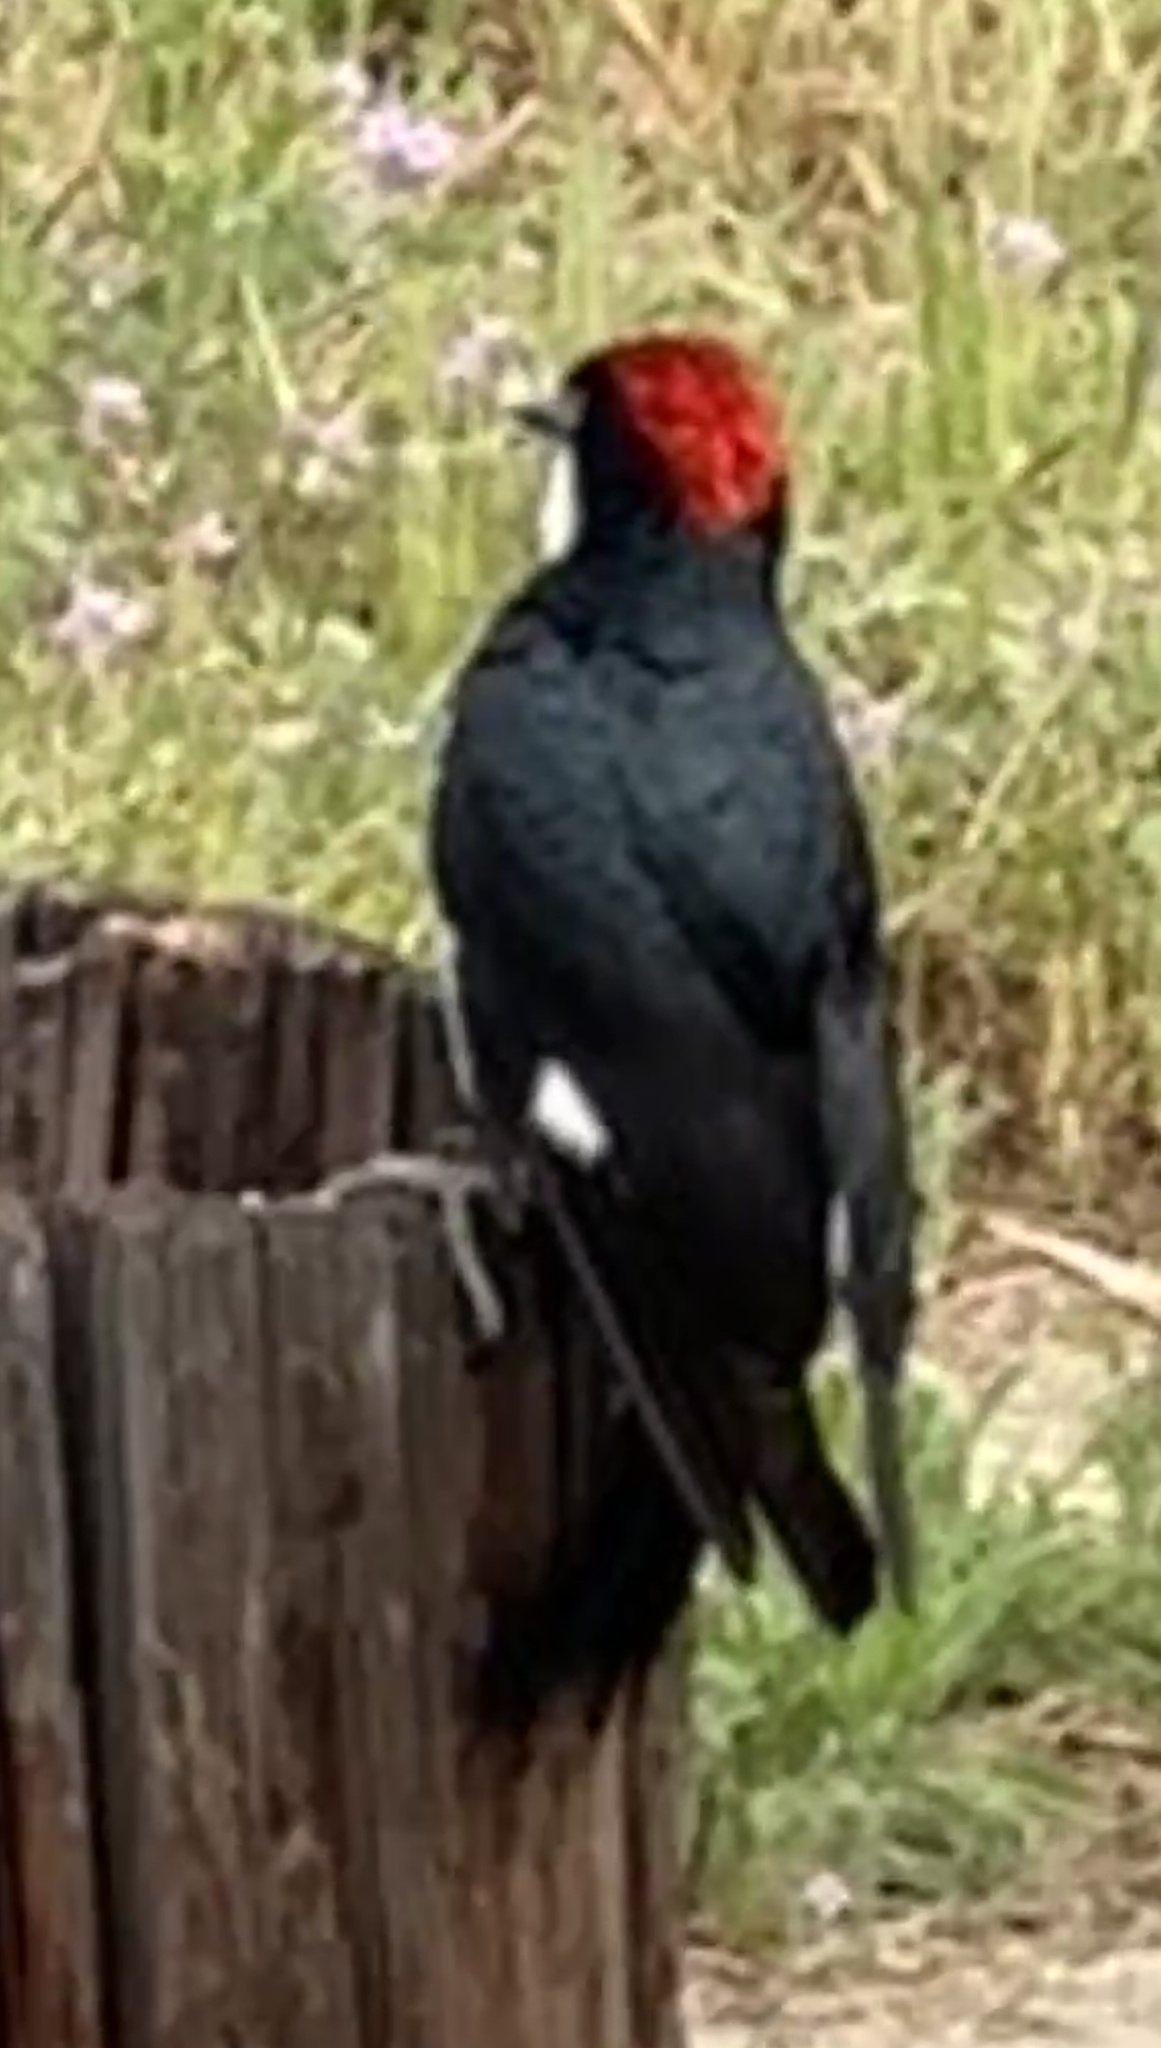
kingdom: Animalia
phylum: Chordata
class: Aves
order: Piciformes
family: Picidae
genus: Melanerpes
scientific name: Melanerpes formicivorus
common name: Acorn woodpecker
